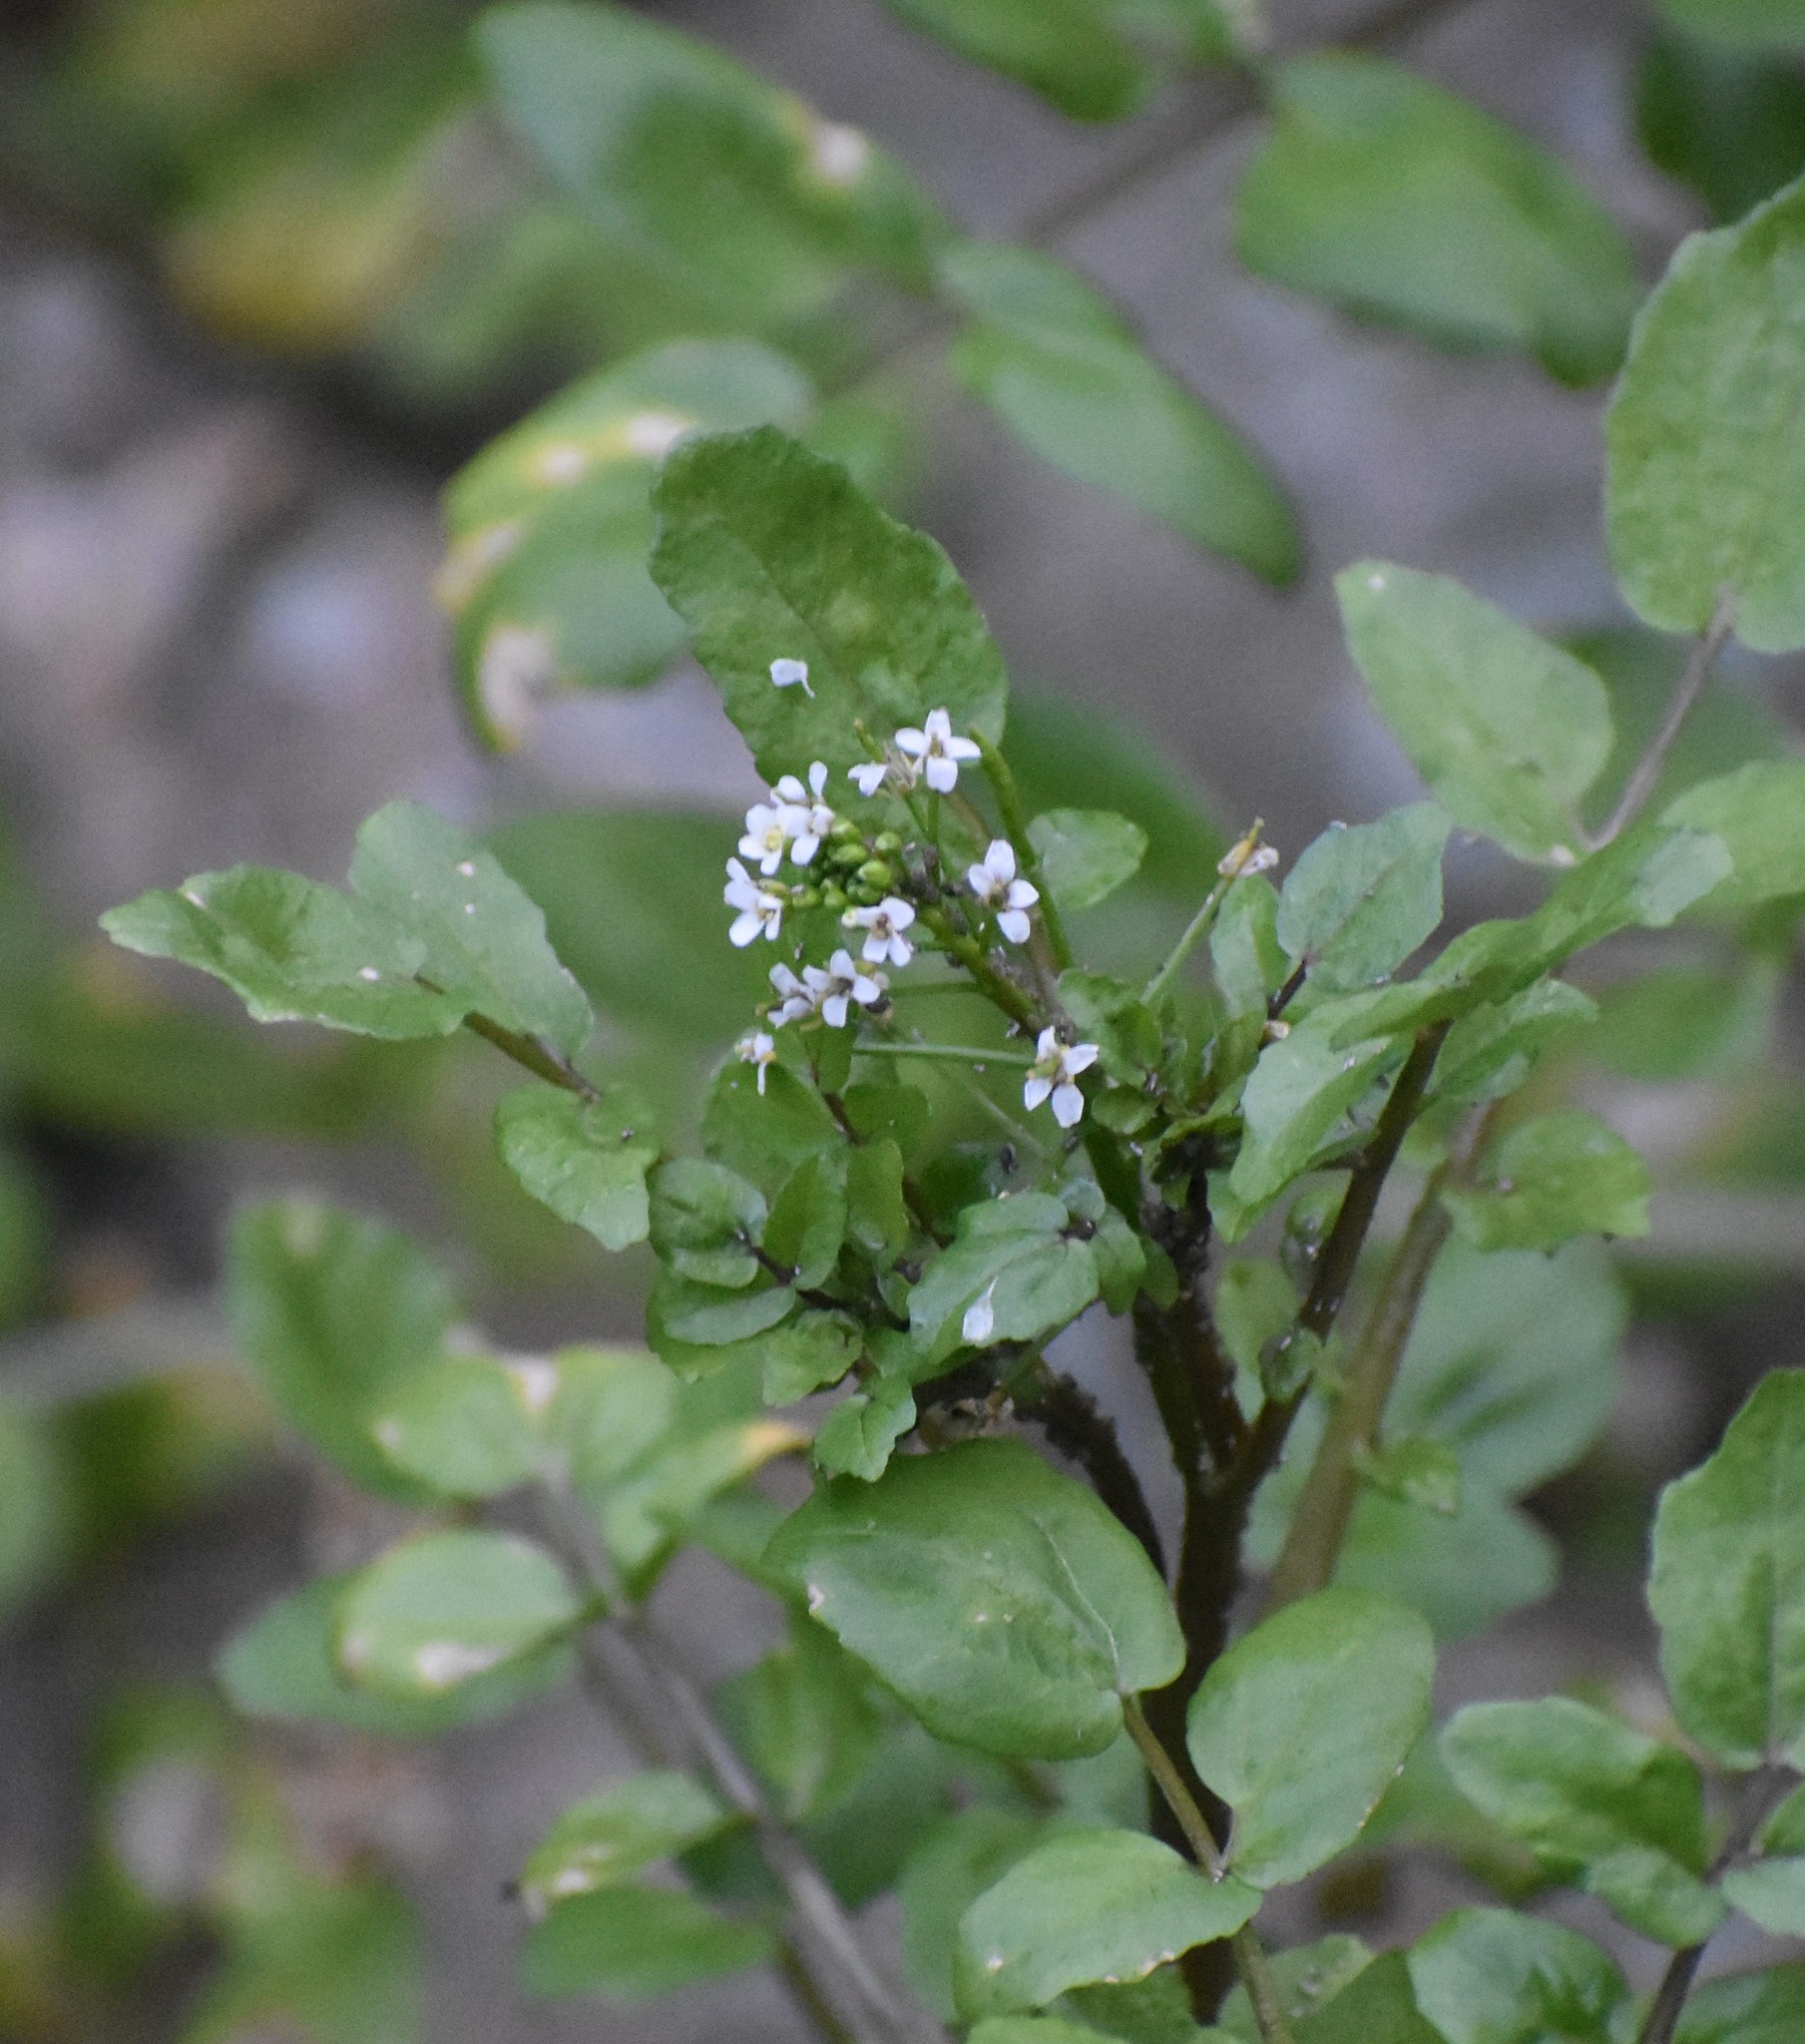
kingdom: Plantae
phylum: Tracheophyta
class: Magnoliopsida
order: Brassicales
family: Brassicaceae
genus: Nasturtium
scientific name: Nasturtium officinale
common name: Watercress
